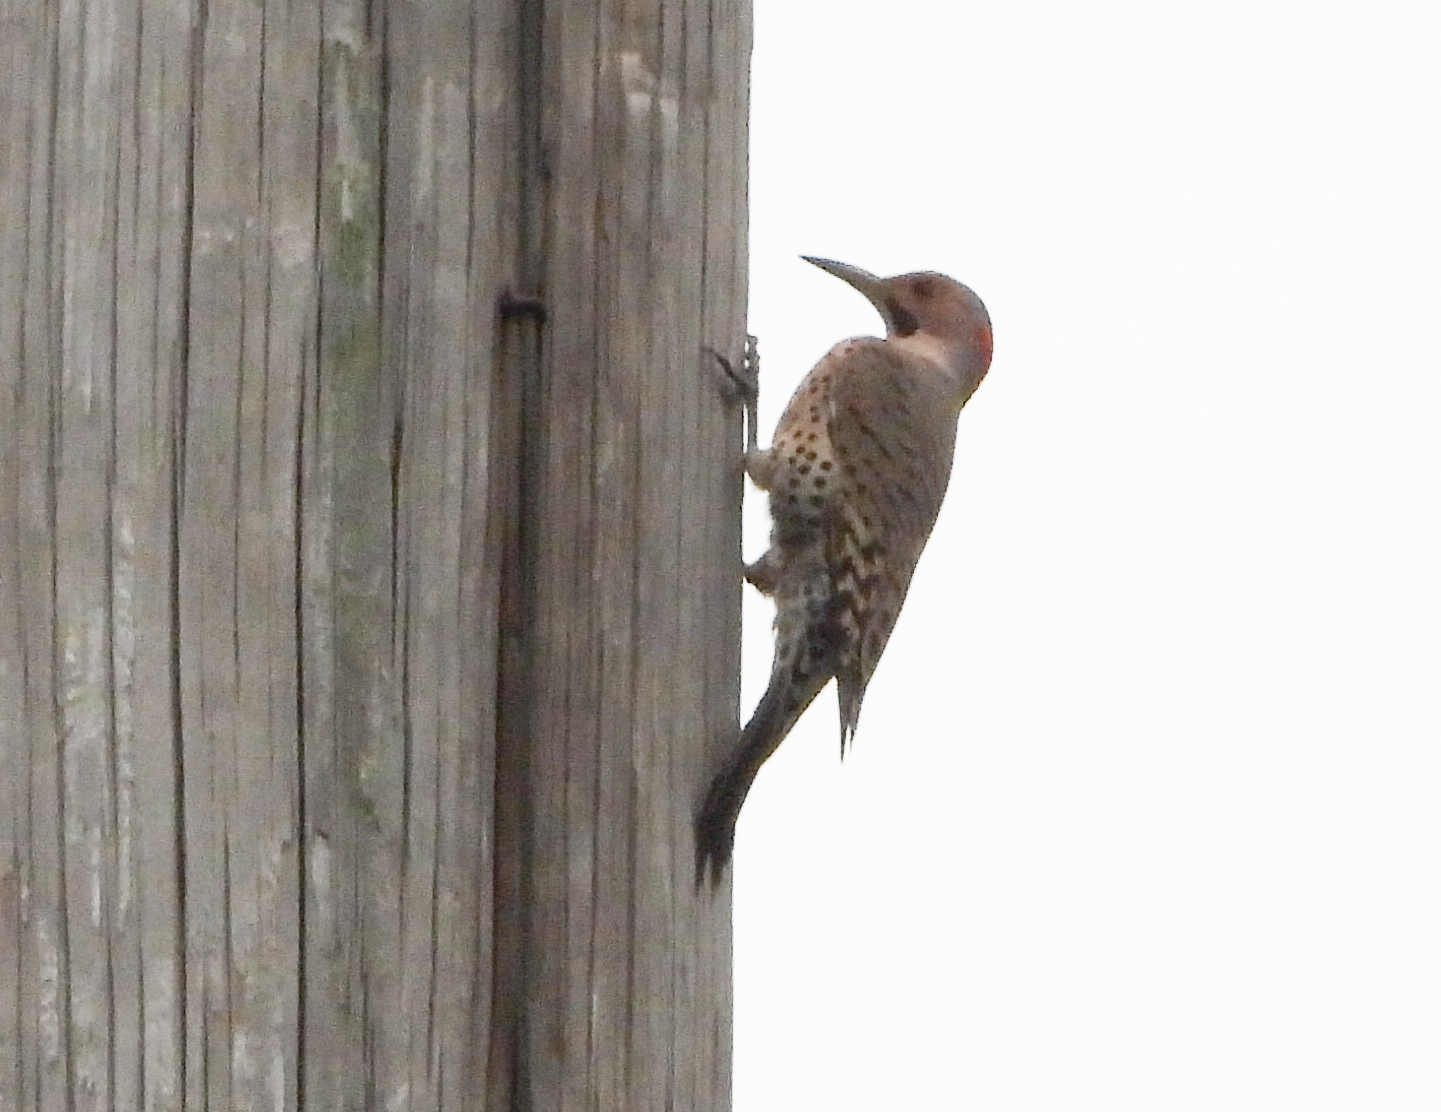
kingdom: Animalia
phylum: Chordata
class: Aves
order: Piciformes
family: Picidae
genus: Colaptes
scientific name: Colaptes auratus
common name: Northern flicker
